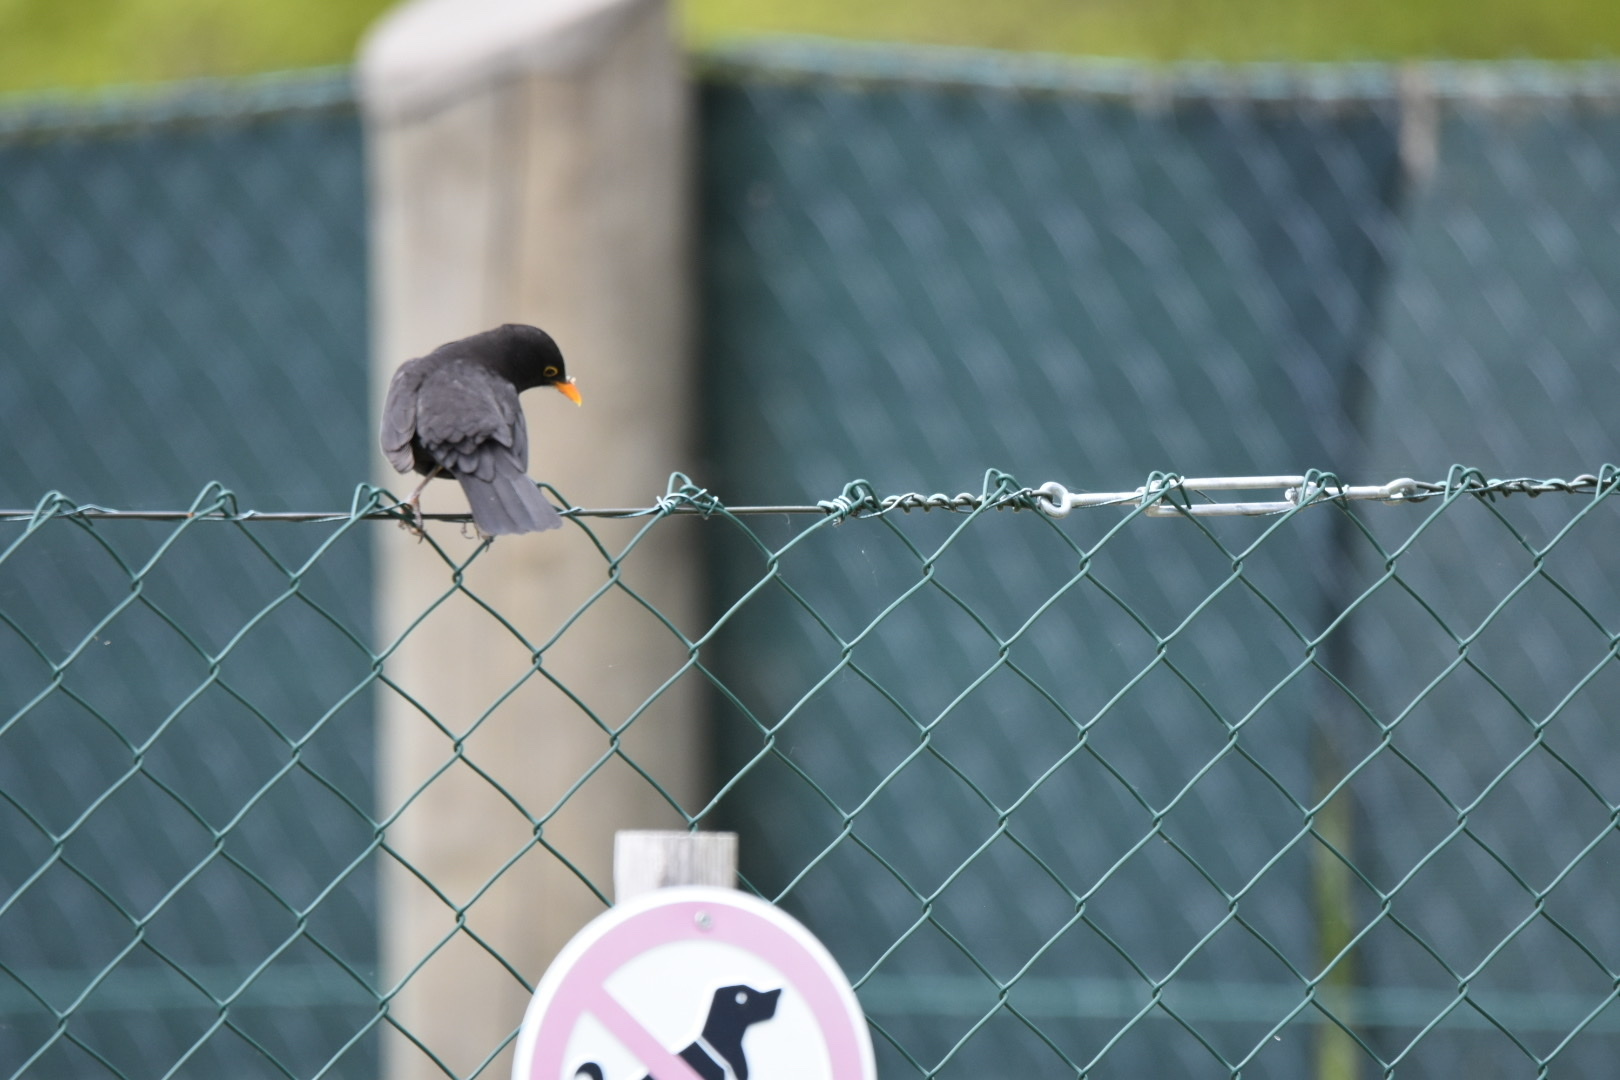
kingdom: Animalia
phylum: Chordata
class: Aves
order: Passeriformes
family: Turdidae
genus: Turdus
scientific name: Turdus merula
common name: Common blackbird
